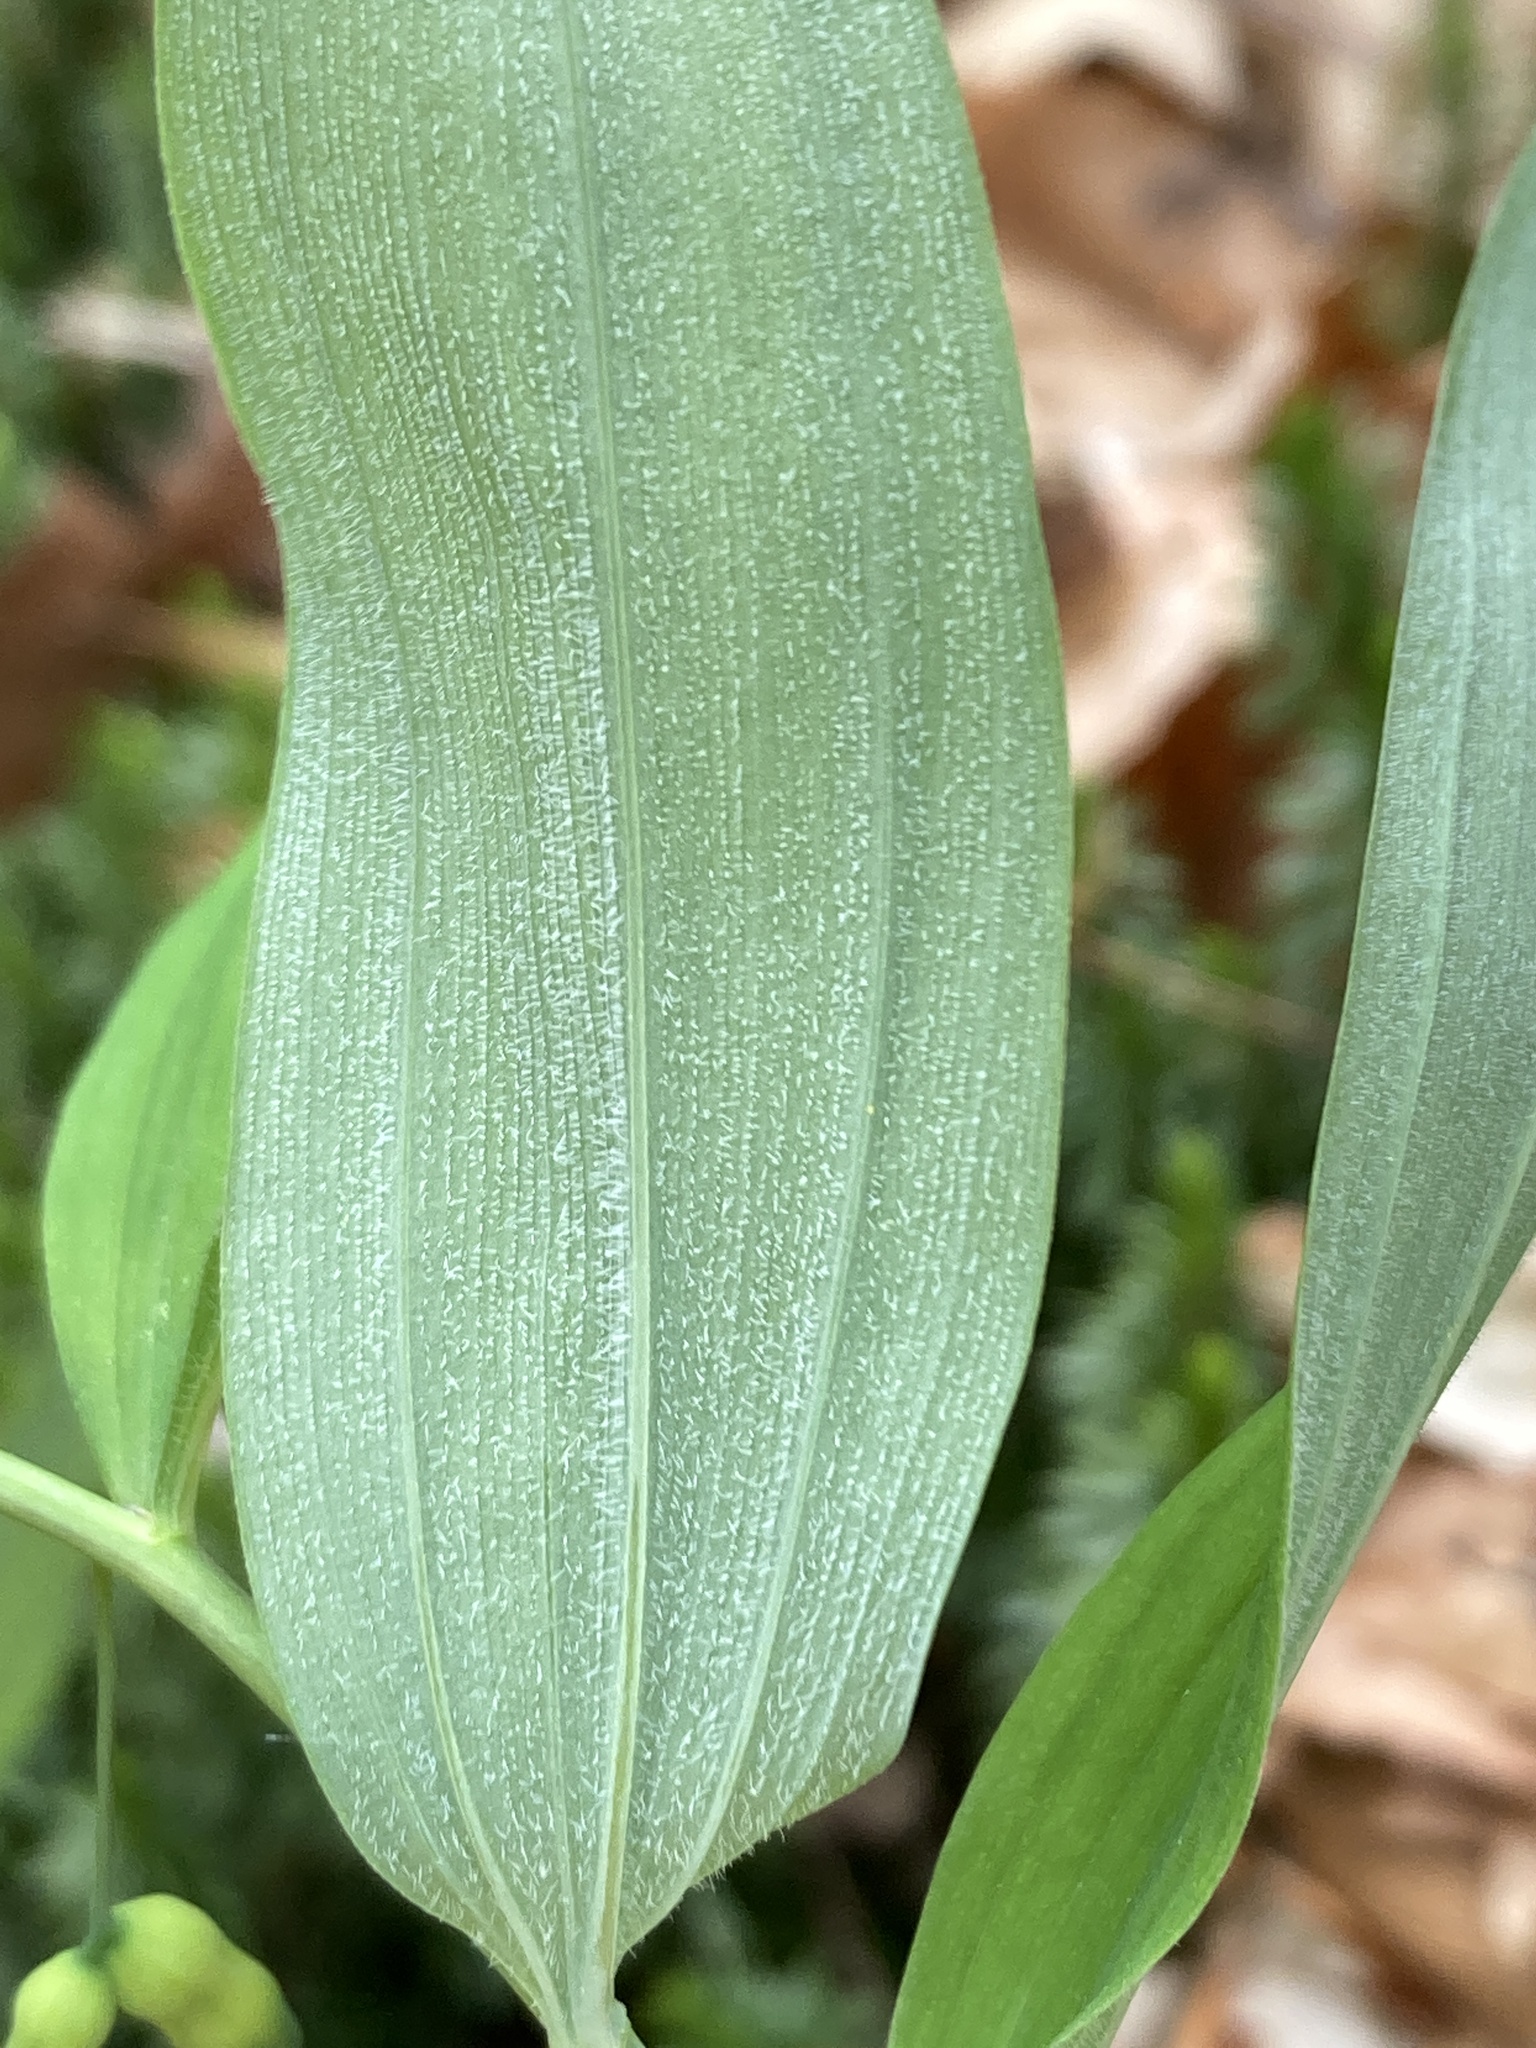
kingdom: Plantae
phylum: Tracheophyta
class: Liliopsida
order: Asparagales
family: Asparagaceae
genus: Polygonatum
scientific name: Polygonatum pubescens
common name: Downy solomon's seal
